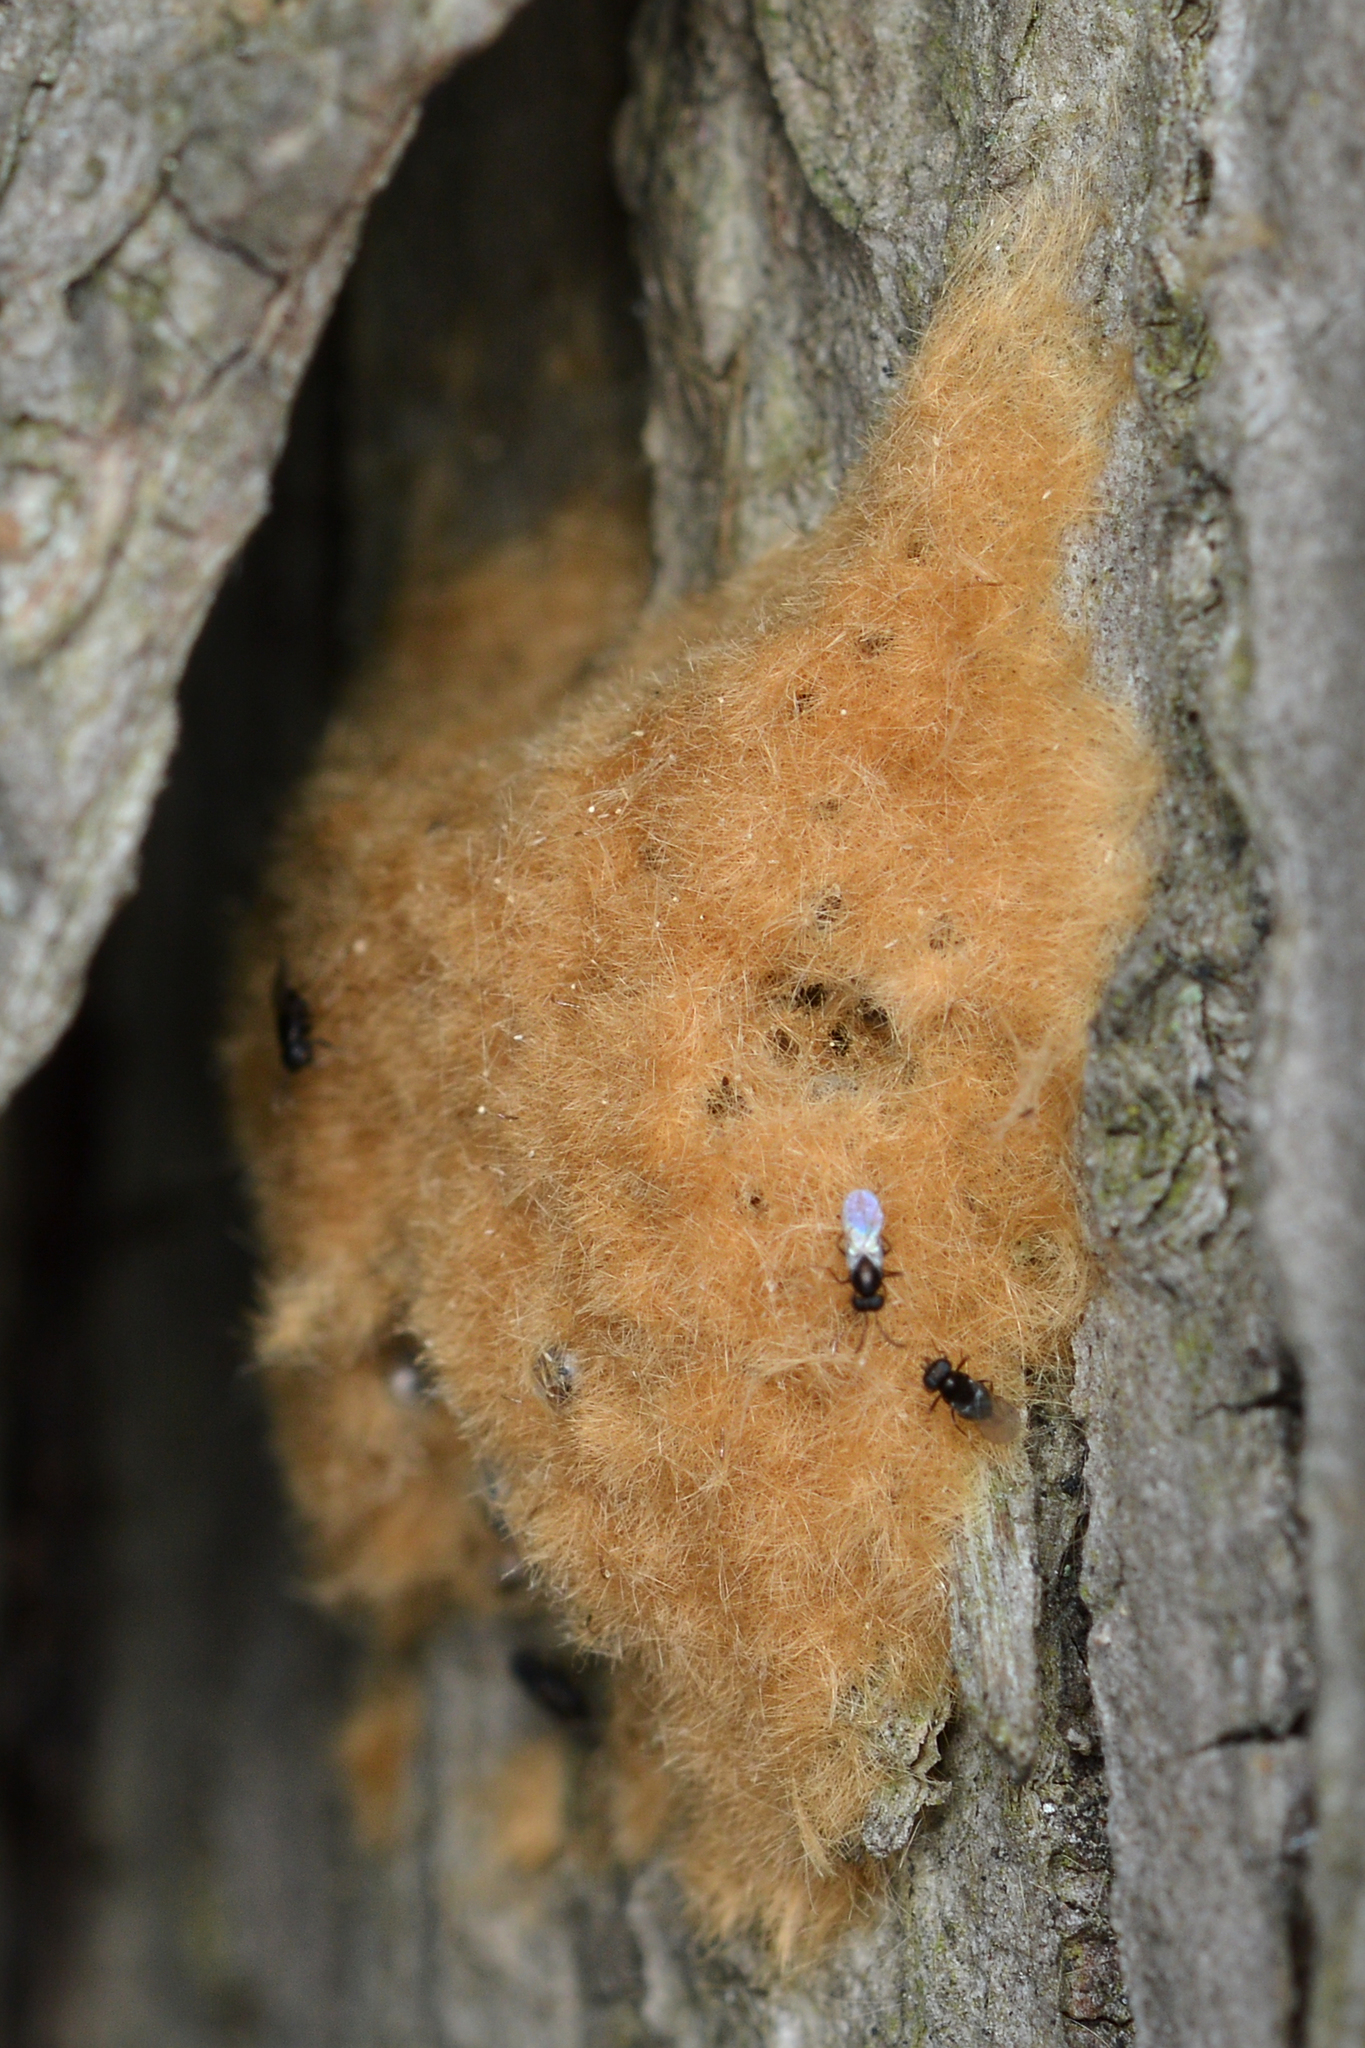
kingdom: Animalia
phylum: Arthropoda
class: Insecta
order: Lepidoptera
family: Erebidae
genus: Lymantria
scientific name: Lymantria dispar
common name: Gypsy moth
